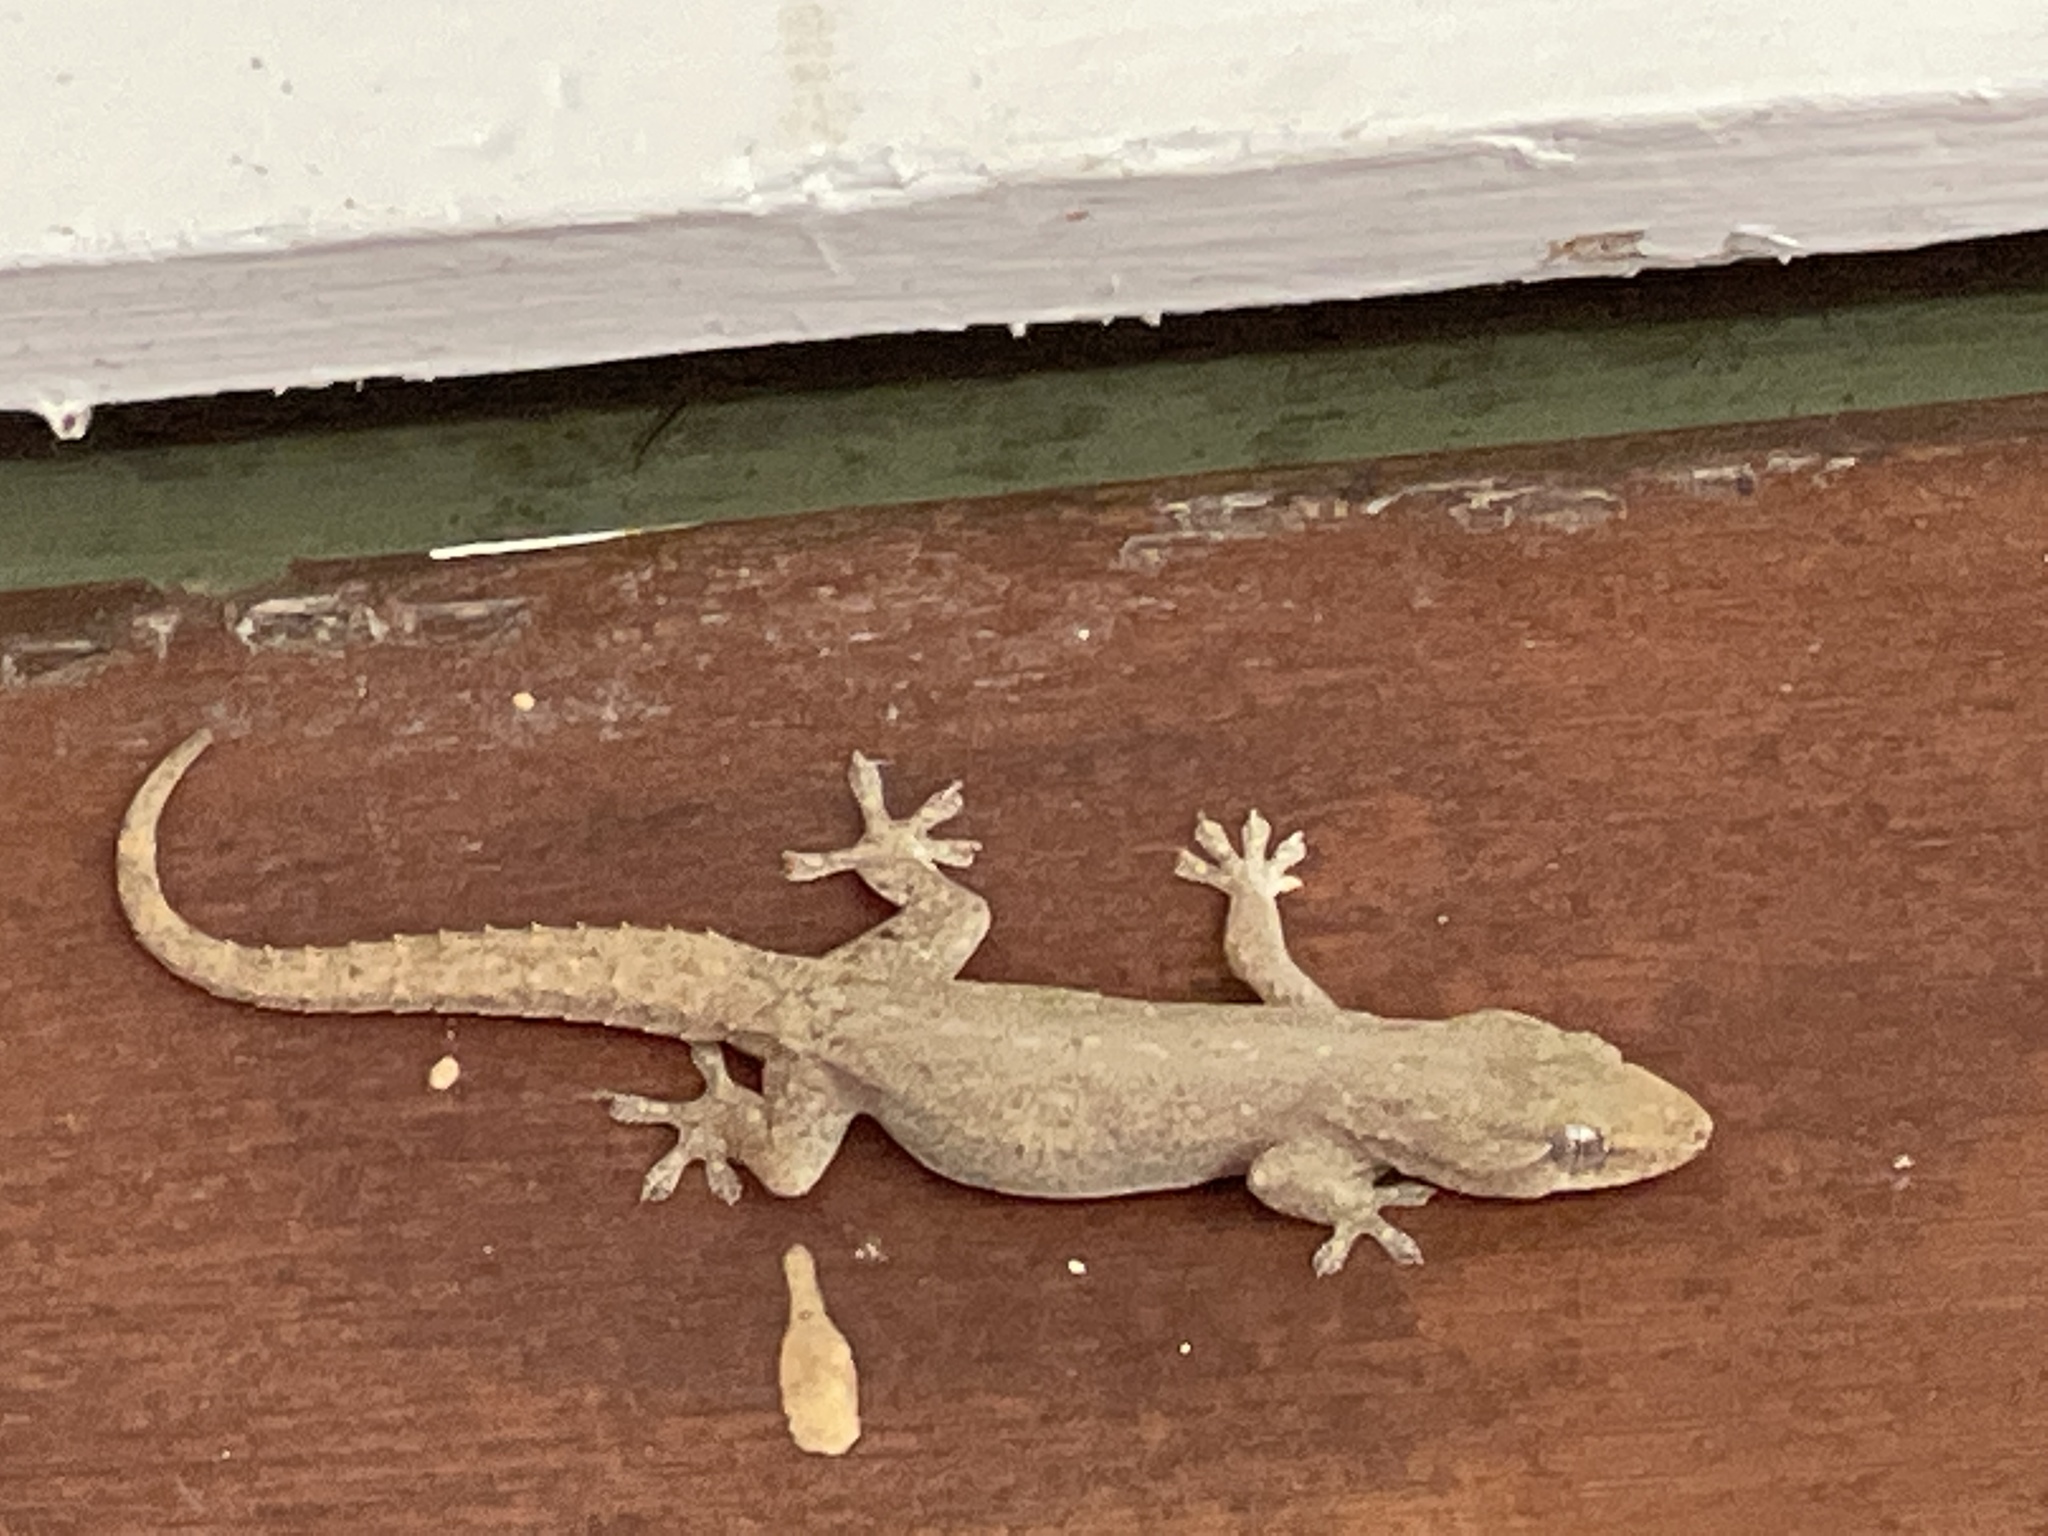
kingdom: Animalia
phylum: Chordata
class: Squamata
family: Gekkonidae
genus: Hemidactylus
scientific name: Hemidactylus frenatus
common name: Common house gecko
